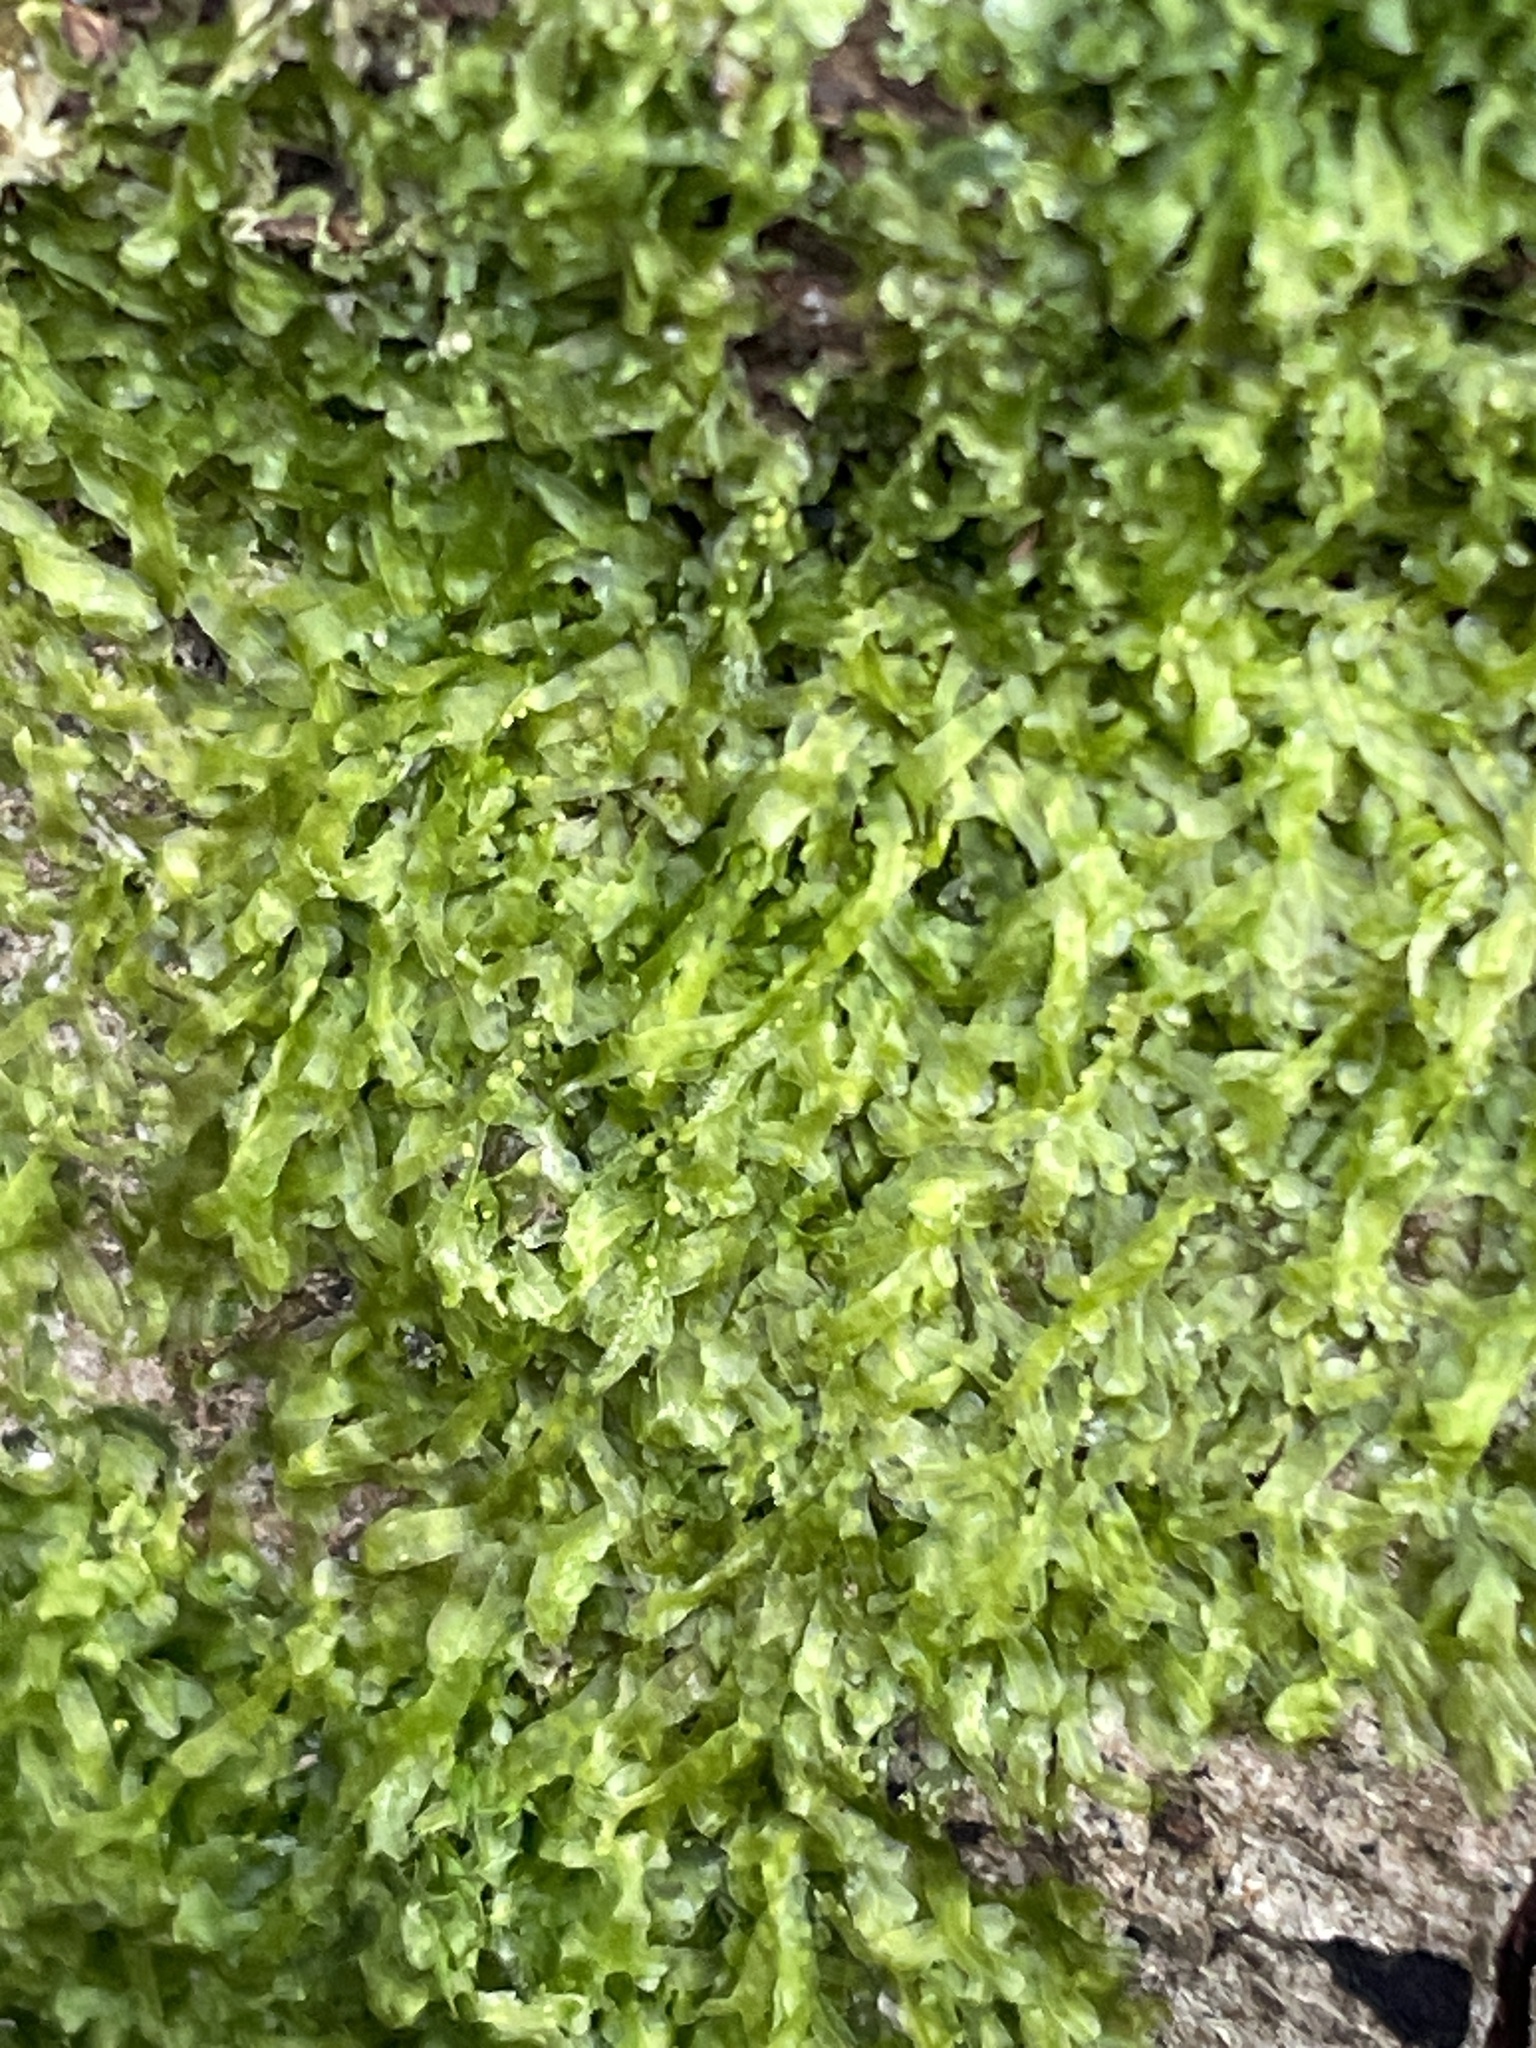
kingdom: Plantae
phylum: Marchantiophyta
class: Jungermanniopsida
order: Metzgeriales
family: Metzgeriaceae
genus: Metzgeria
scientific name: Metzgeria furcata
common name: Forked veilwort
